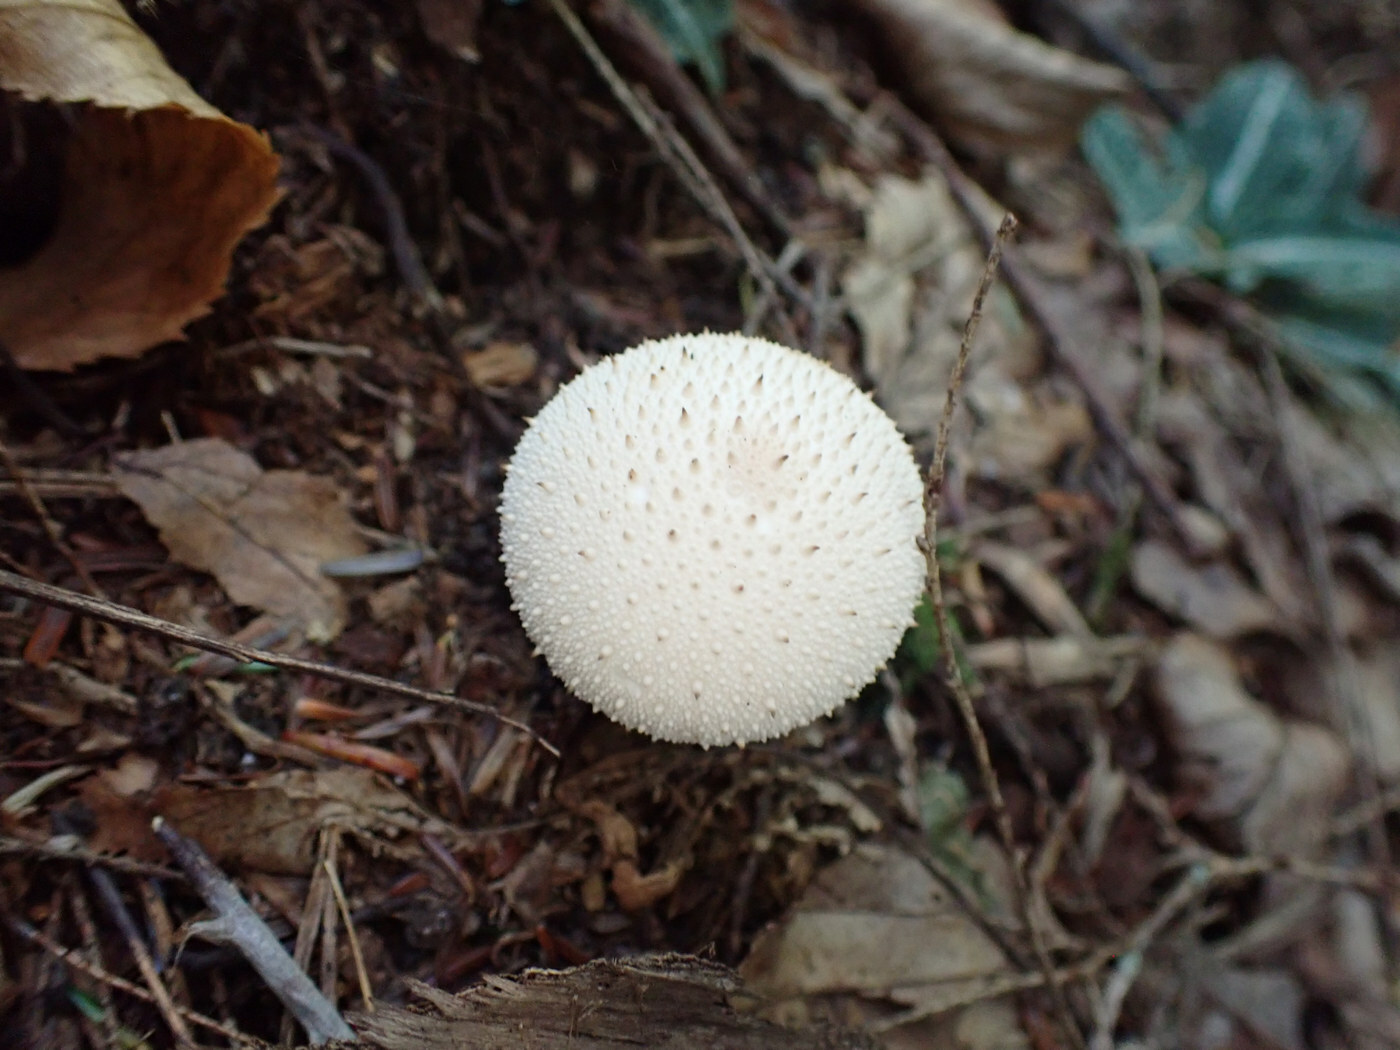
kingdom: Fungi
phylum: Basidiomycota
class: Agaricomycetes
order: Agaricales
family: Lycoperdaceae
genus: Lycoperdon
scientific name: Lycoperdon perlatum
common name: Common puffball
